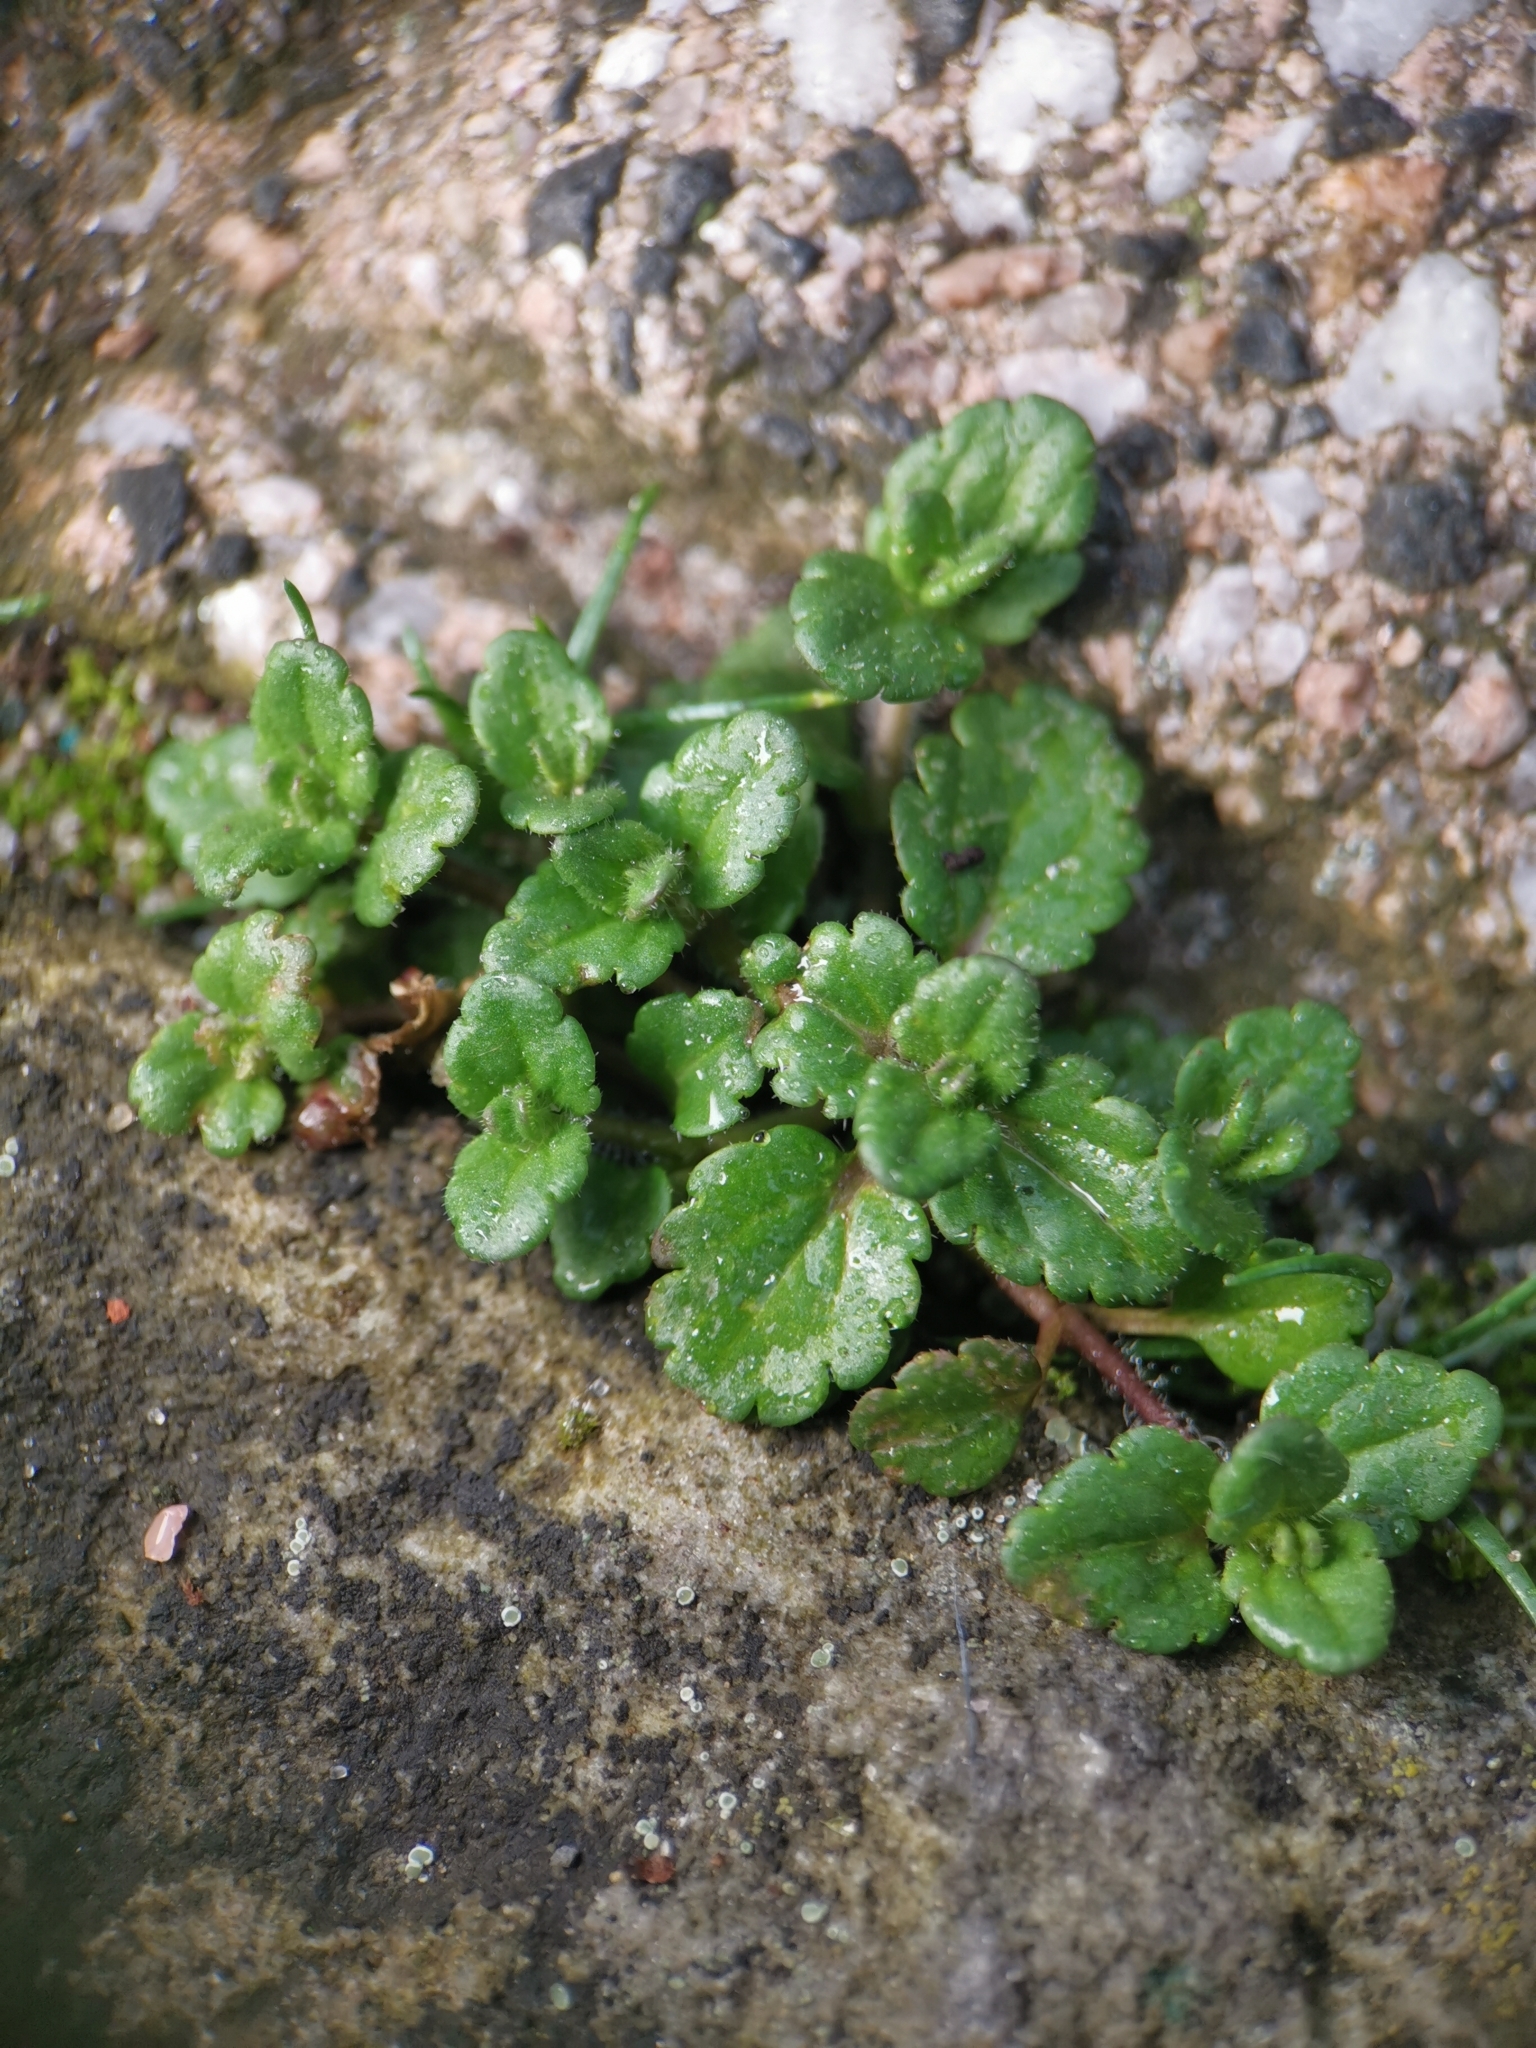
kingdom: Plantae
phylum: Tracheophyta
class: Magnoliopsida
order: Lamiales
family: Plantaginaceae
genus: Veronica
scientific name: Veronica arvensis
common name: Corn speedwell
